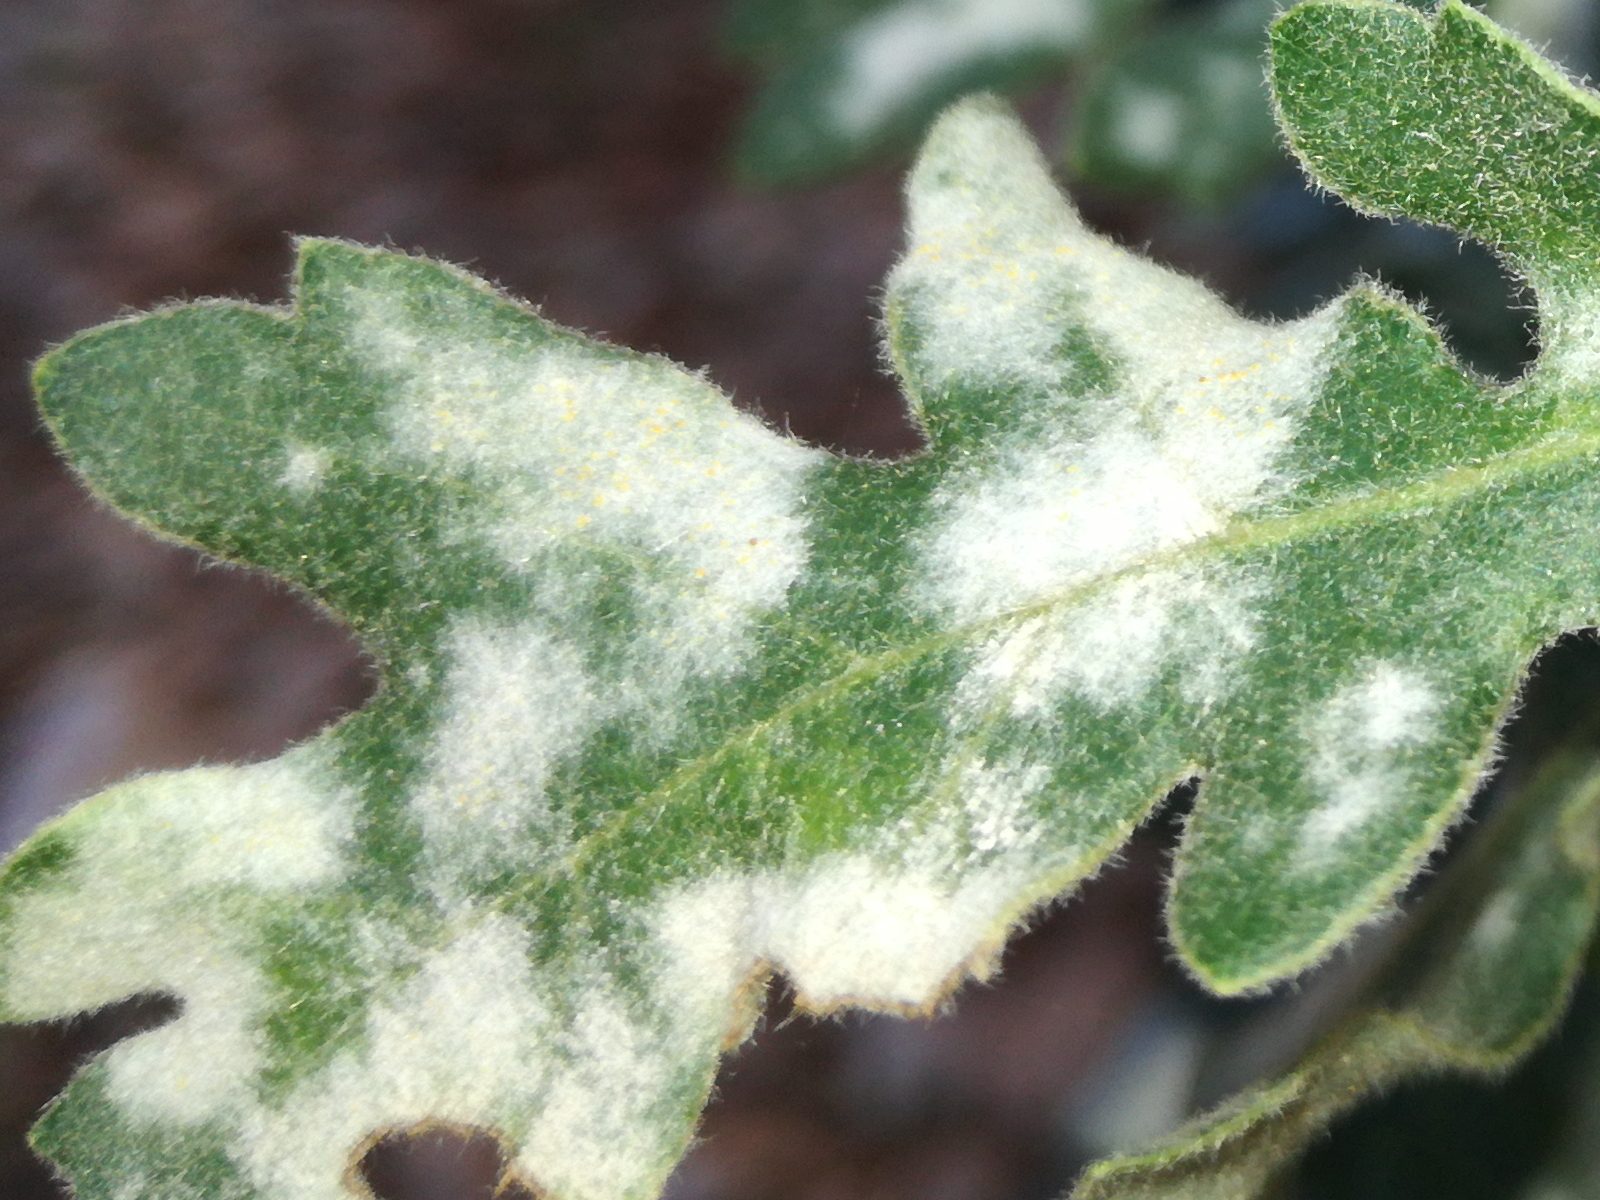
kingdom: Fungi
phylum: Ascomycota
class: Leotiomycetes
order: Helotiales
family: Erysiphaceae
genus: Erysiphe
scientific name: Erysiphe alphitoides
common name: Oak mildew
